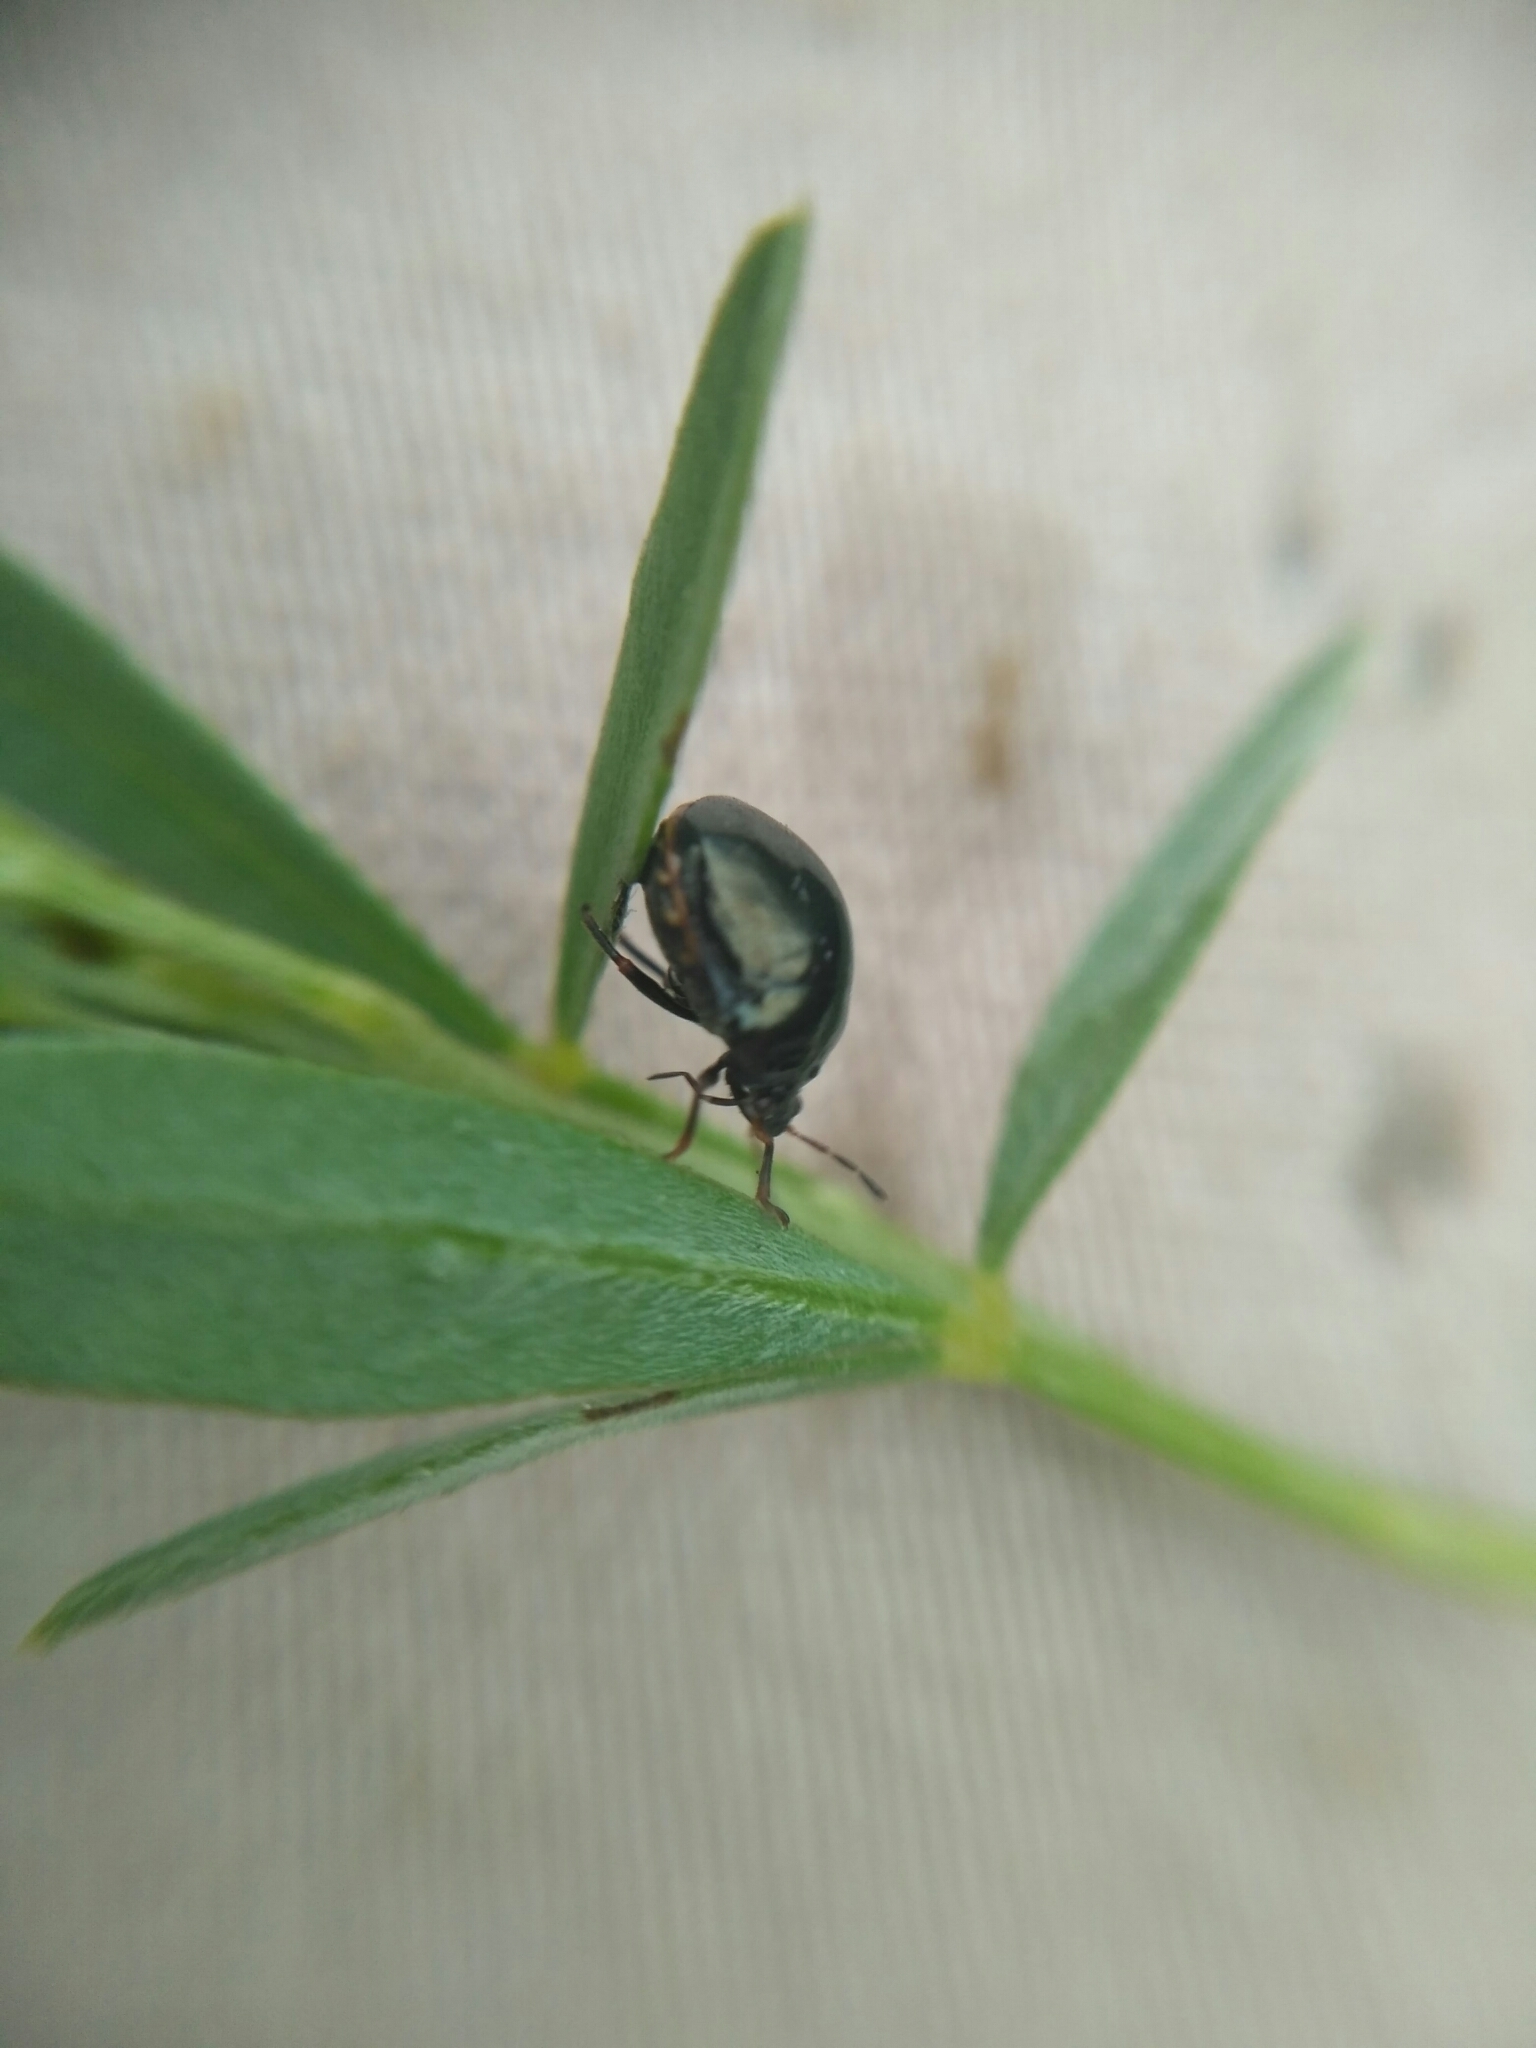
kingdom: Animalia
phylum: Arthropoda
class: Insecta
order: Hemiptera
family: Plataspidae
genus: Coptosoma
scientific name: Coptosoma scutellatum
